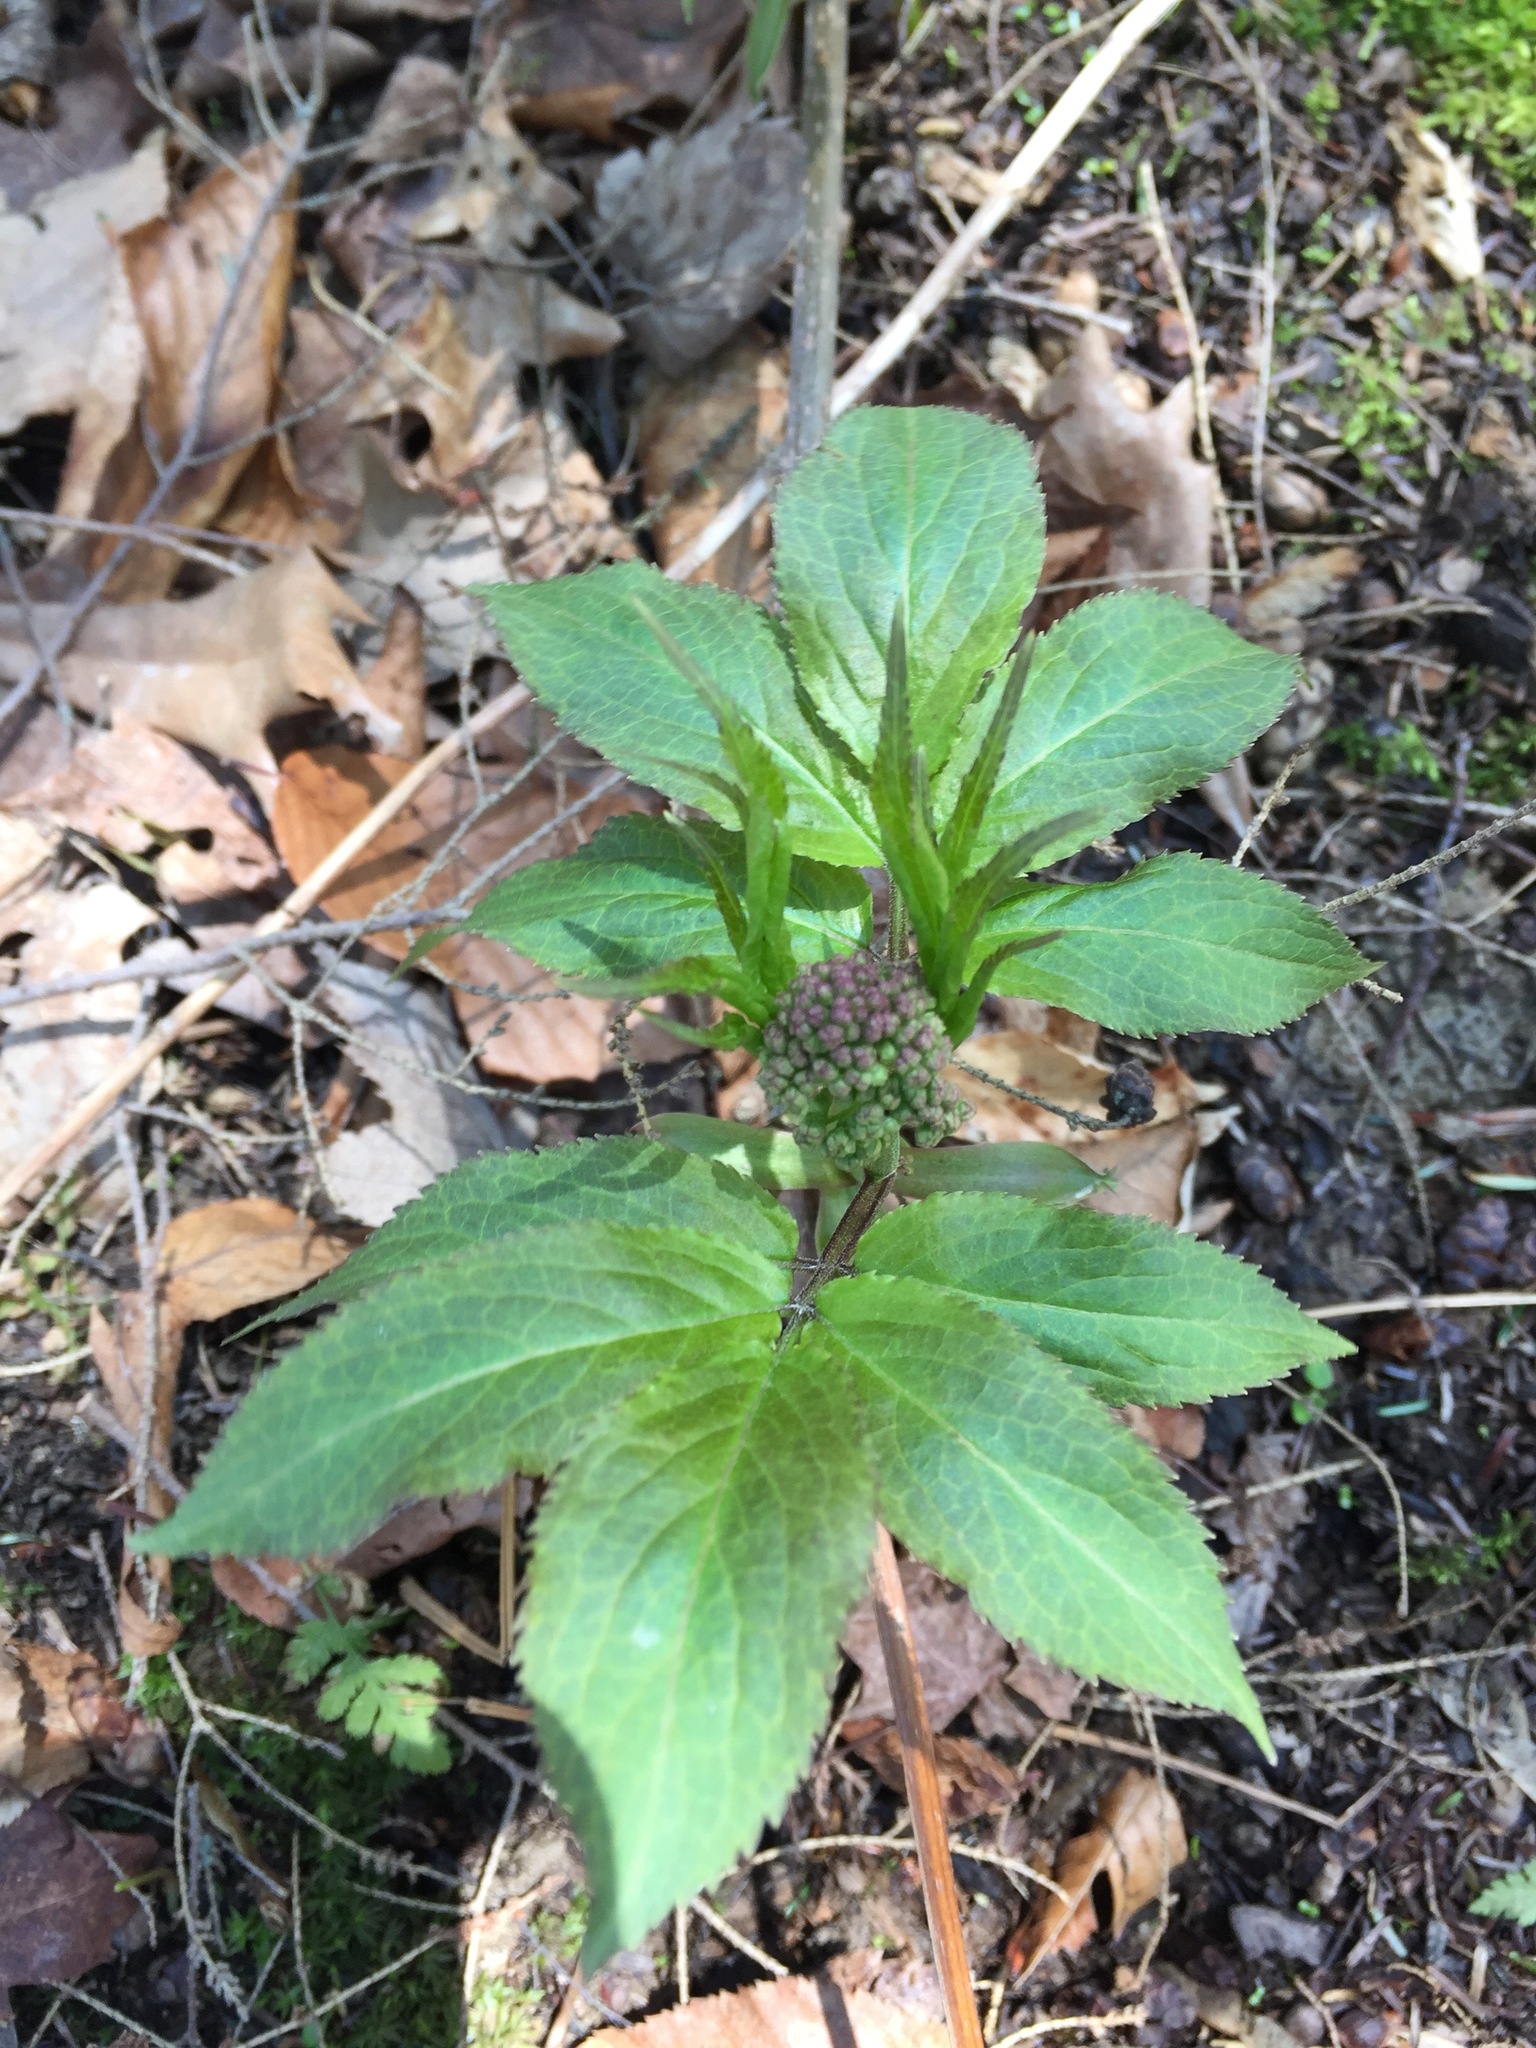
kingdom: Plantae
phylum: Tracheophyta
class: Magnoliopsida
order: Dipsacales
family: Viburnaceae
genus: Sambucus
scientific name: Sambucus racemosa
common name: Red-berried elder
